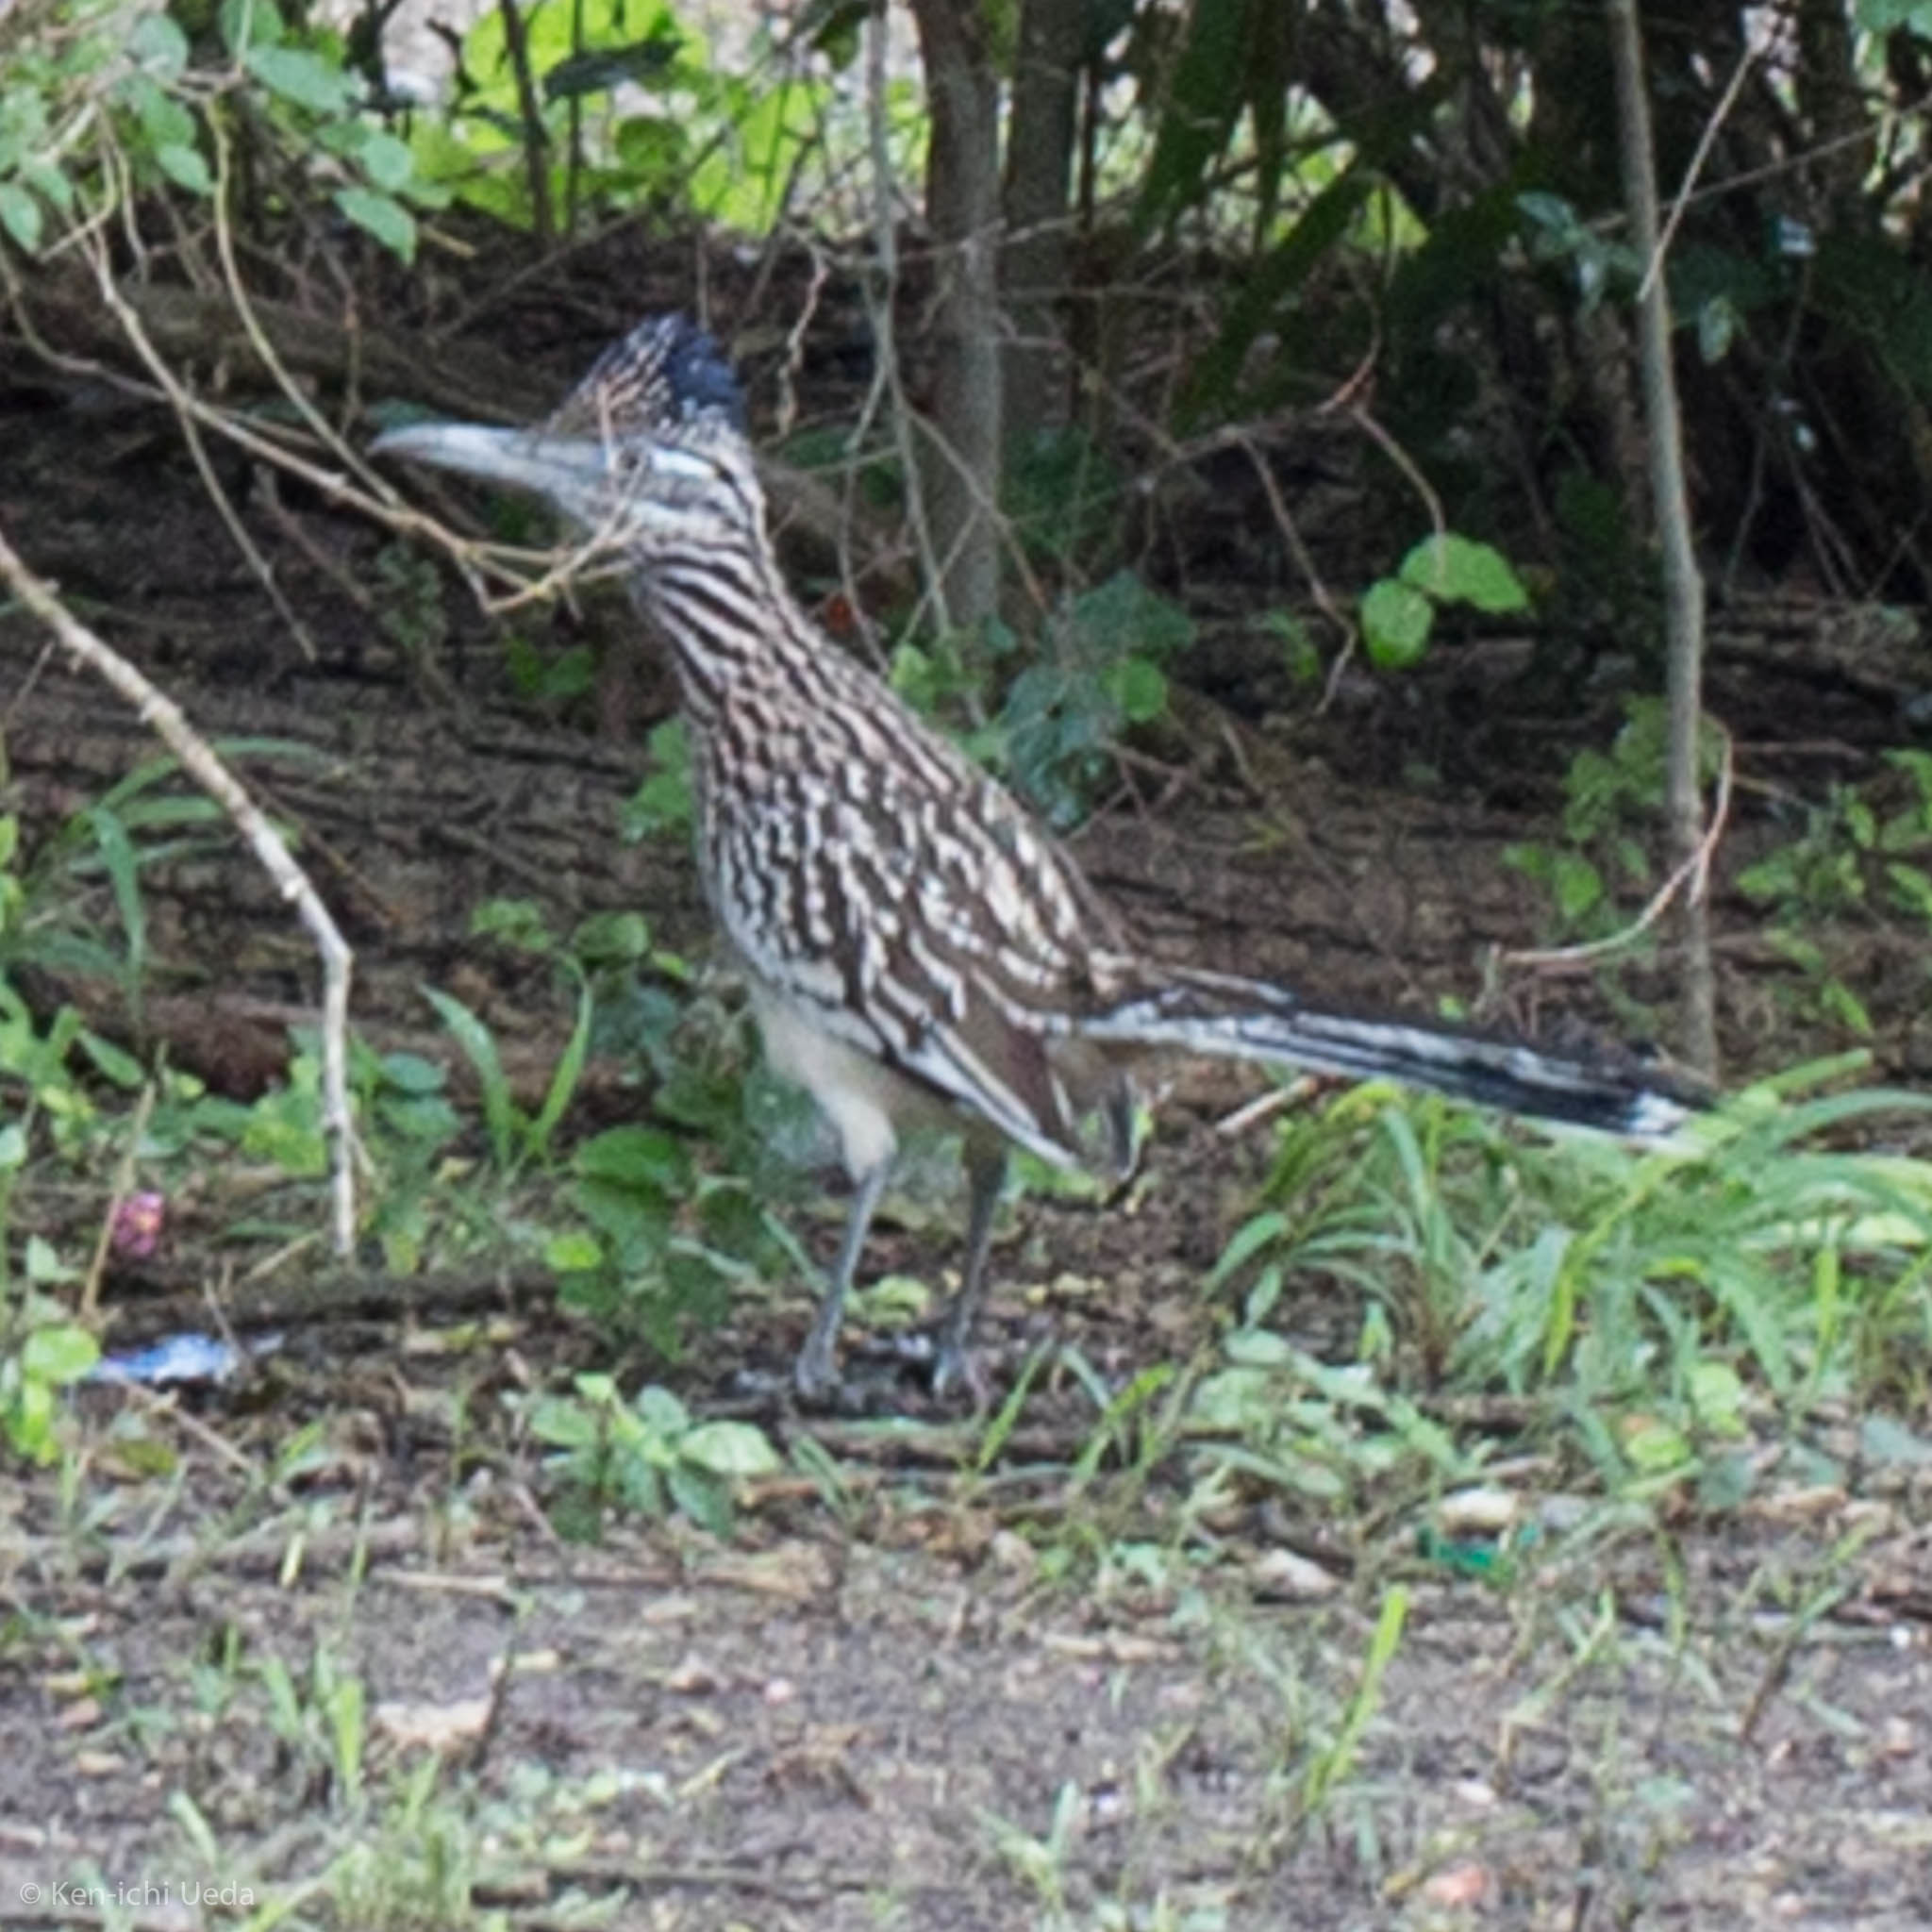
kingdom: Animalia
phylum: Chordata
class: Aves
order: Cuculiformes
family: Cuculidae
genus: Geococcyx
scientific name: Geococcyx californianus
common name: Greater roadrunner
